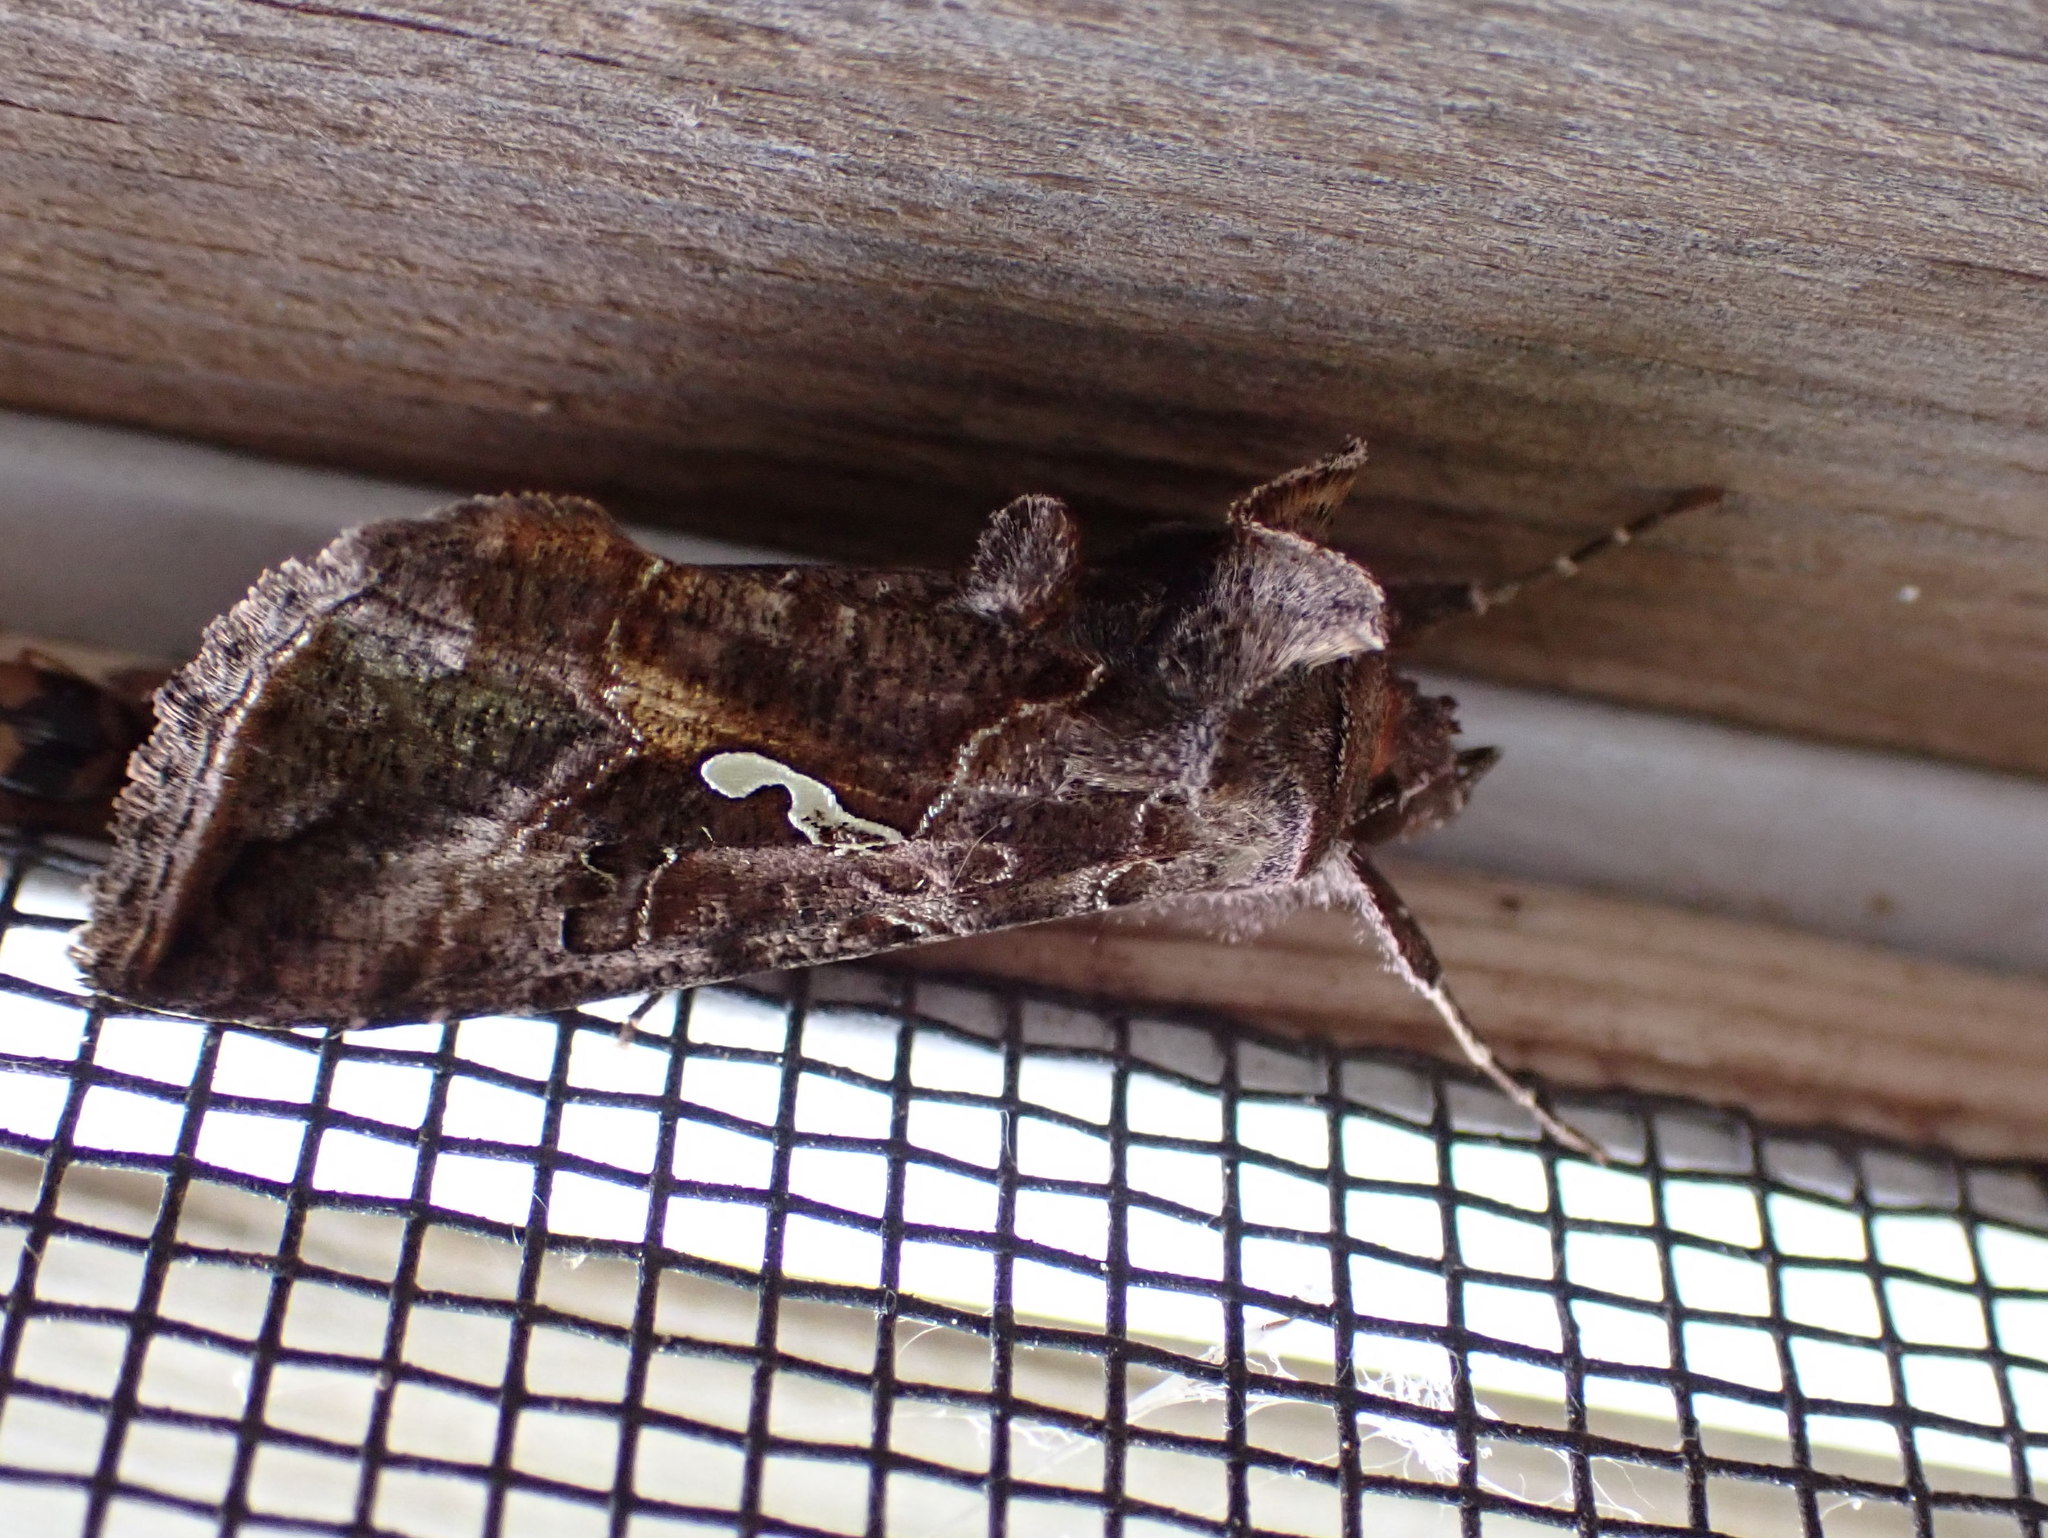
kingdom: Animalia
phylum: Arthropoda
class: Insecta
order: Lepidoptera
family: Noctuidae
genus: Autographa
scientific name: Autographa precationis
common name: Common looper moth
